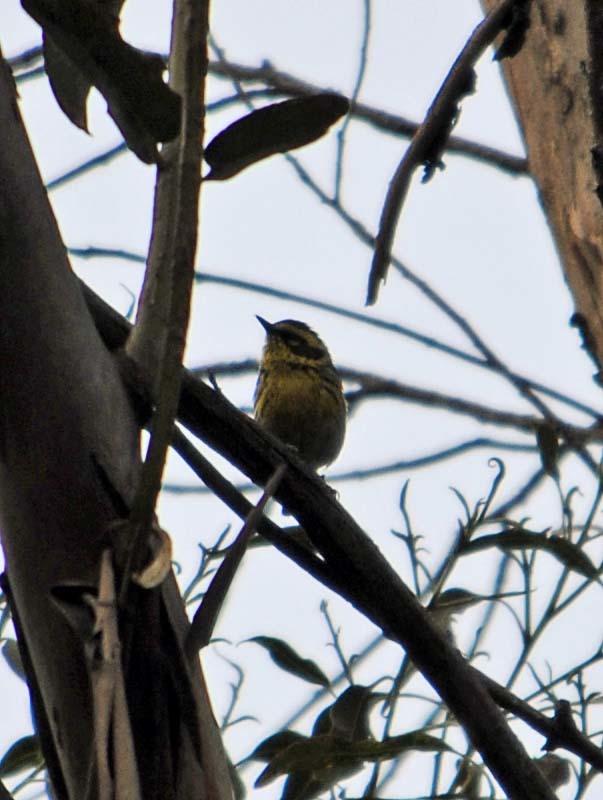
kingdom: Animalia
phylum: Chordata
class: Aves
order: Passeriformes
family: Parulidae
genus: Setophaga
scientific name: Setophaga townsendi
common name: Townsend's warbler
